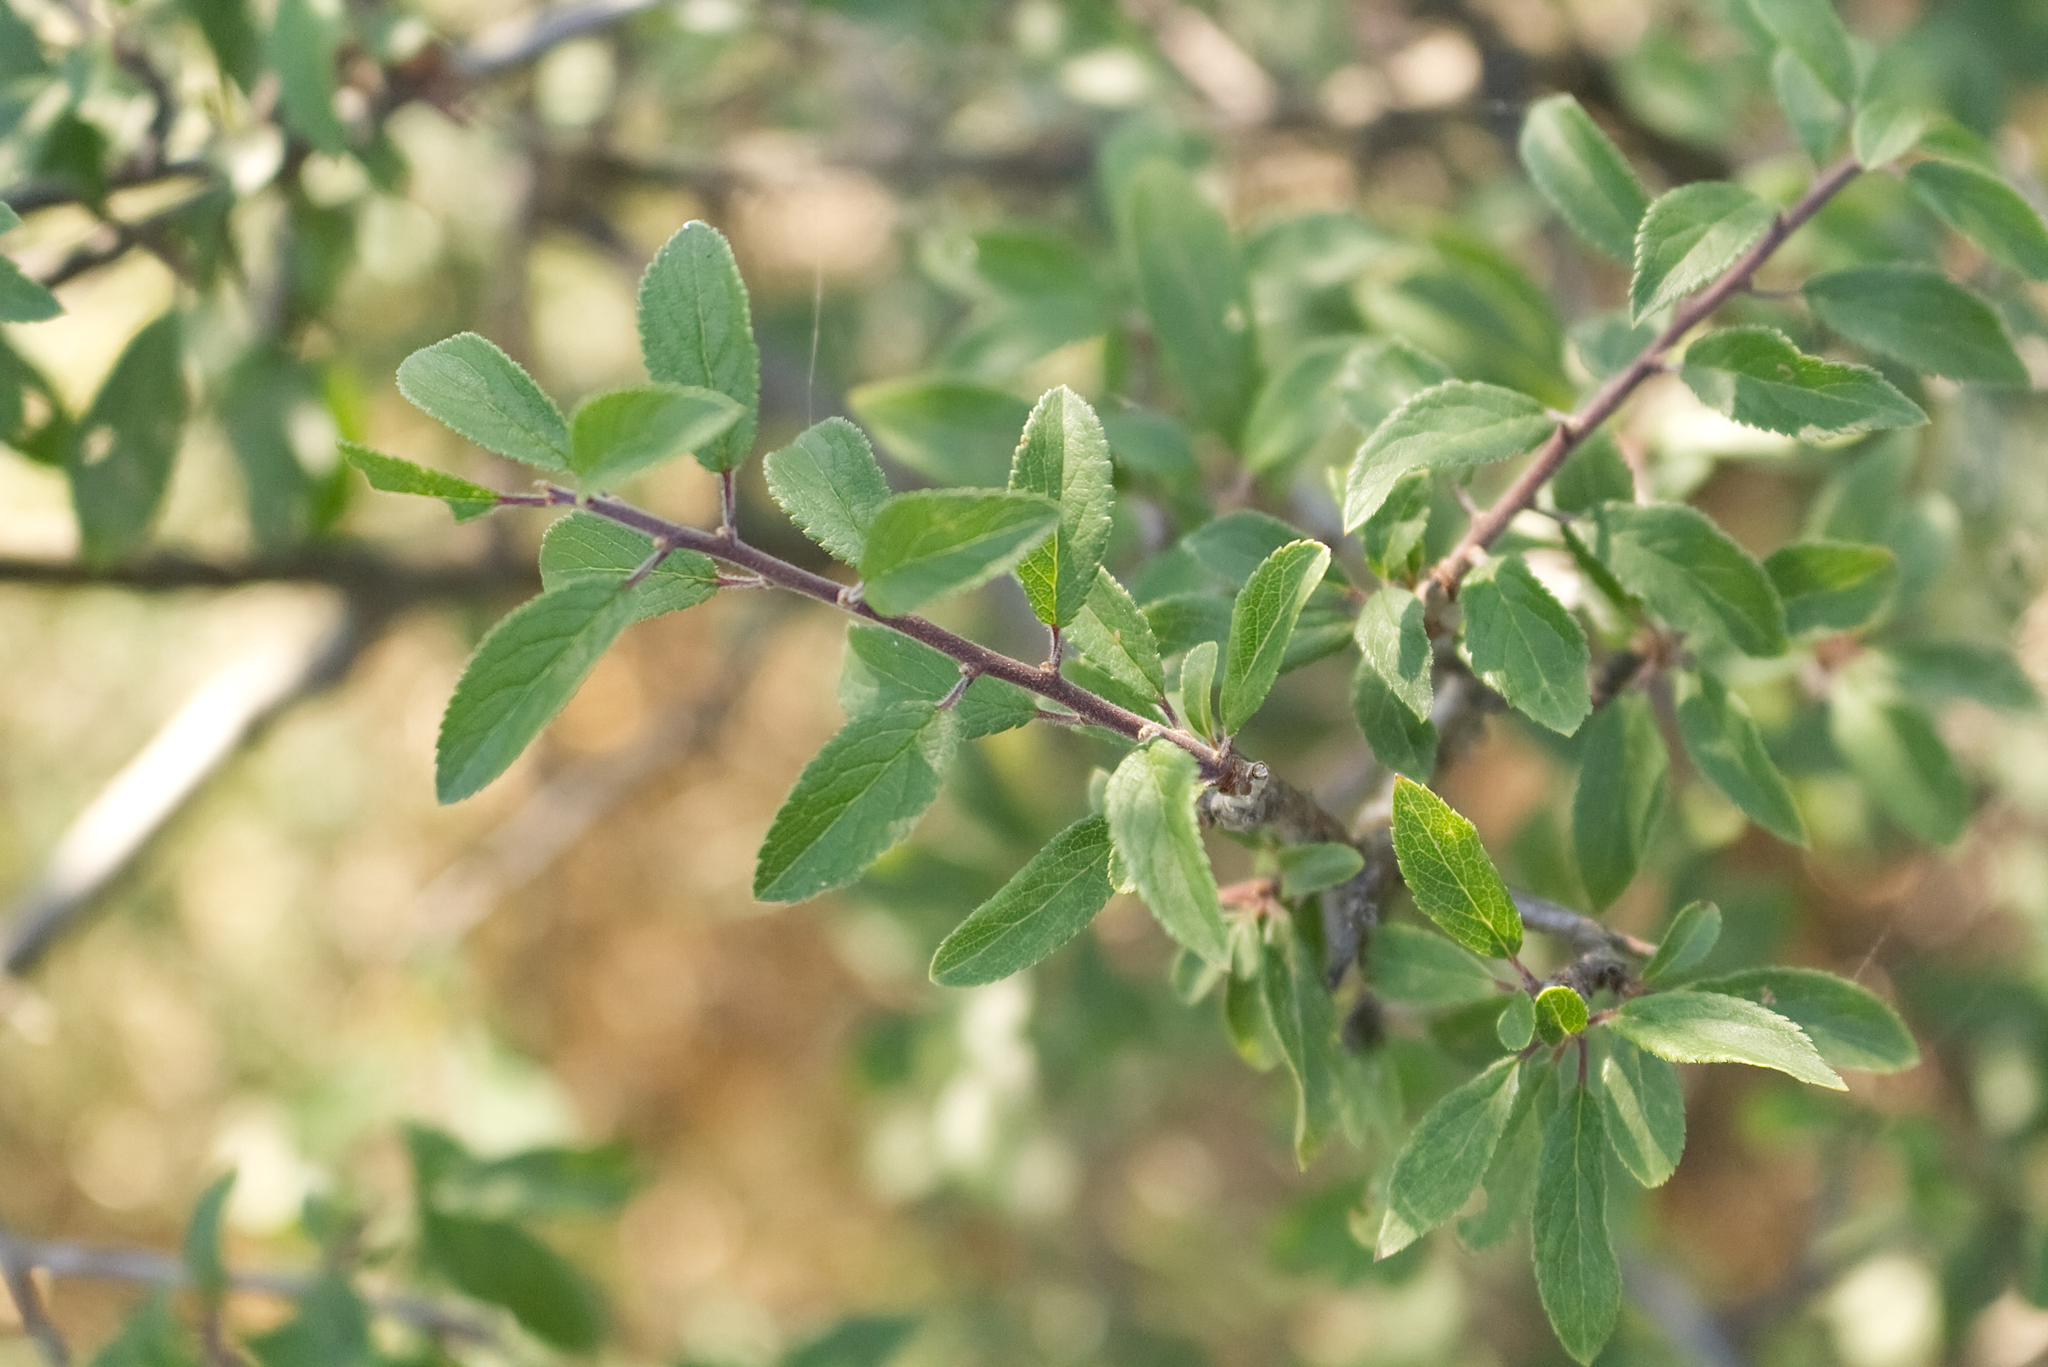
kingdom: Plantae
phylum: Tracheophyta
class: Magnoliopsida
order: Rosales
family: Rosaceae
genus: Prunus
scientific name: Prunus spinosa
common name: Blackthorn
